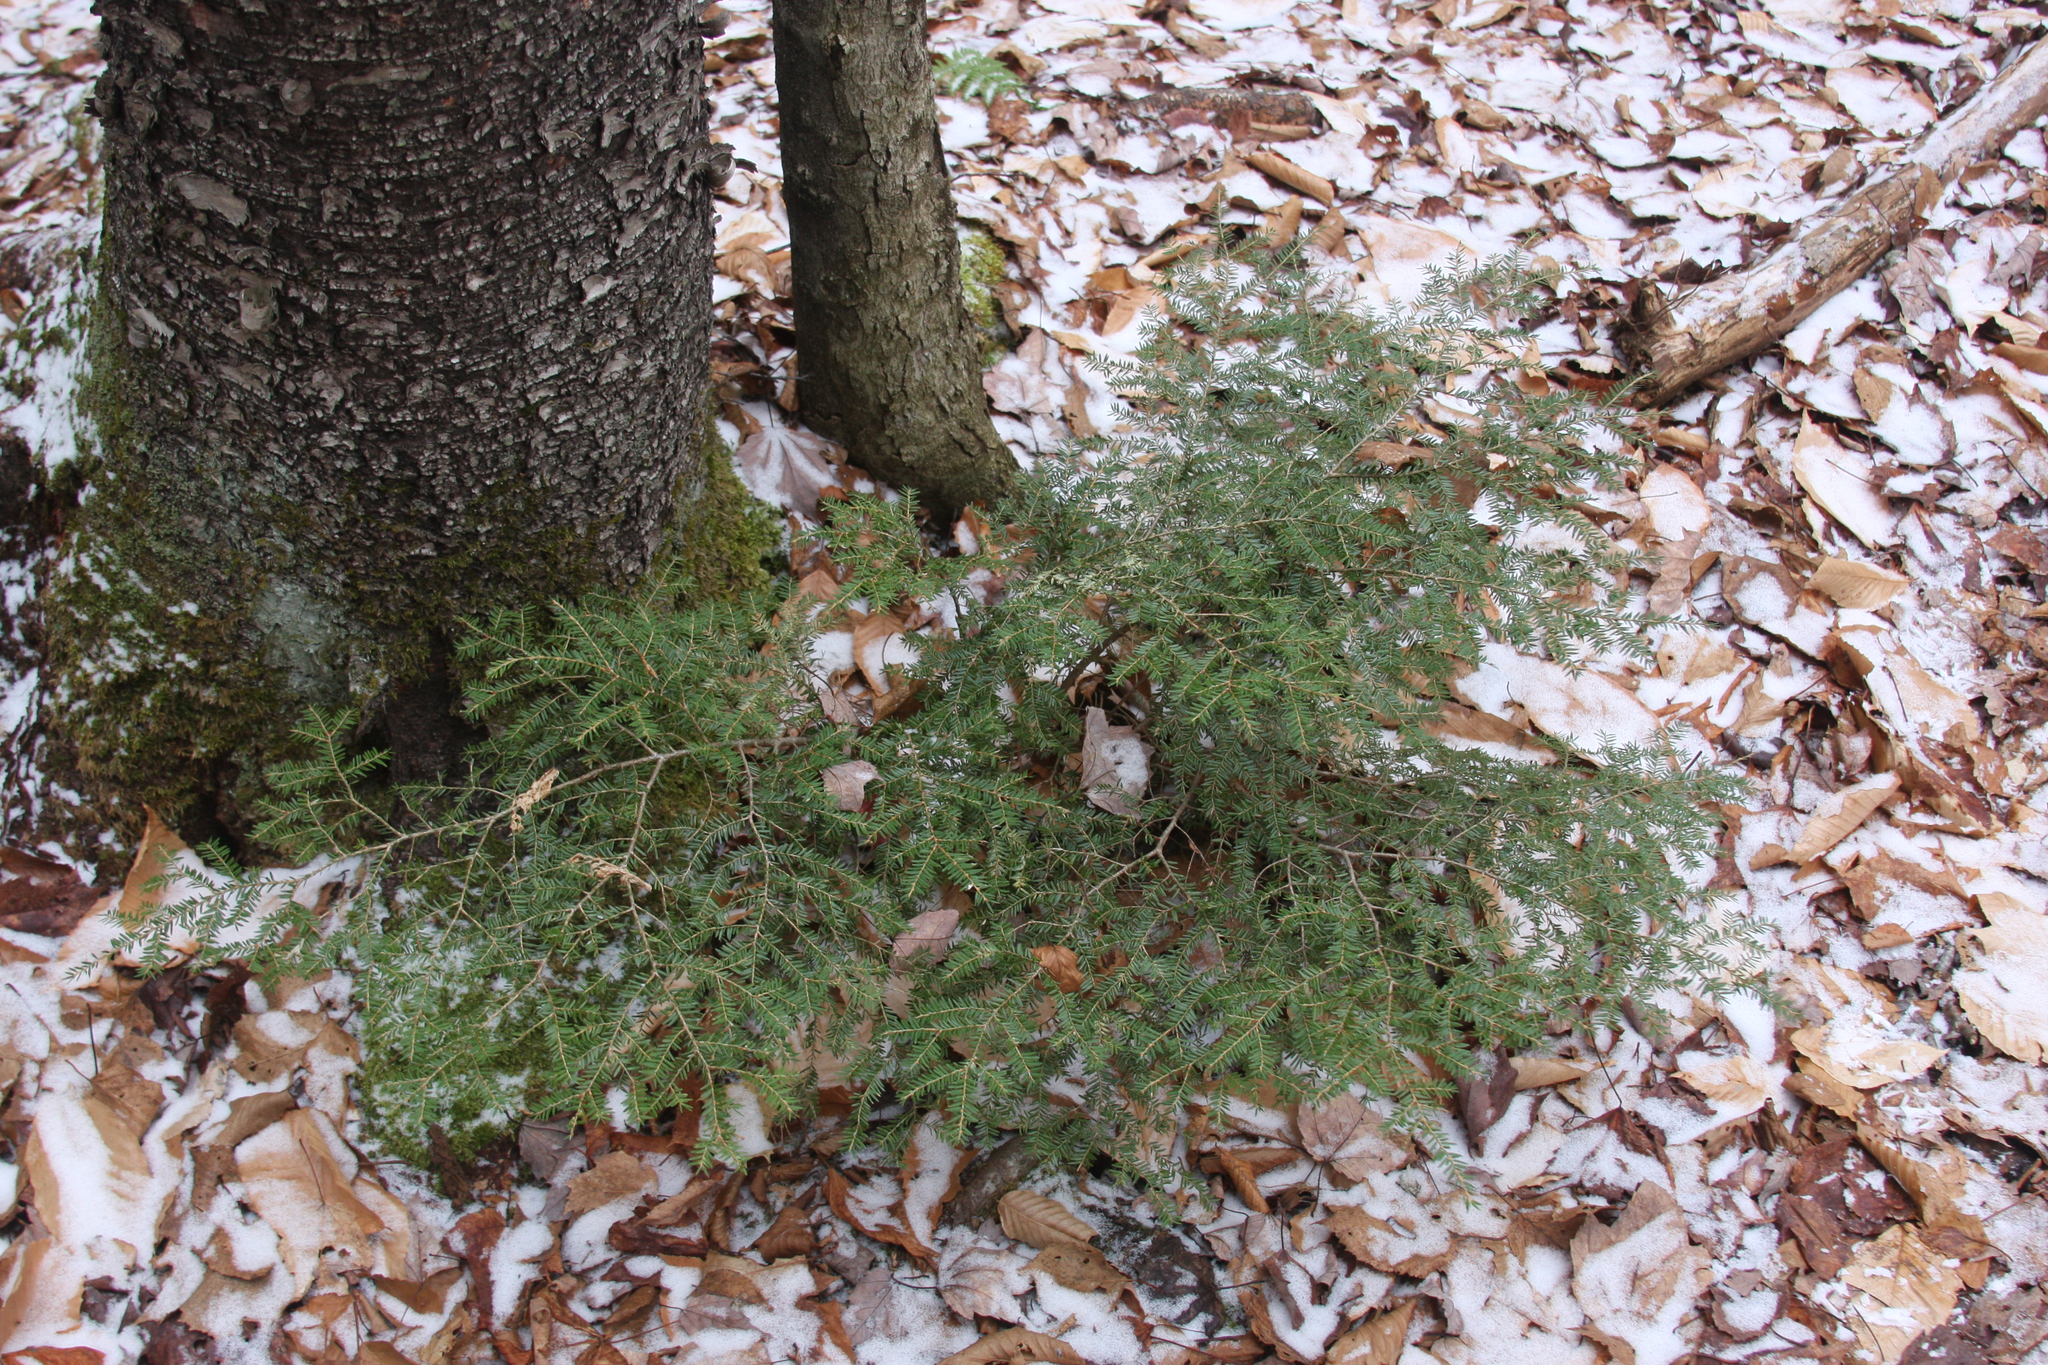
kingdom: Plantae
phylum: Tracheophyta
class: Pinopsida
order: Pinales
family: Pinaceae
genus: Tsuga
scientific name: Tsuga canadensis
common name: Eastern hemlock
